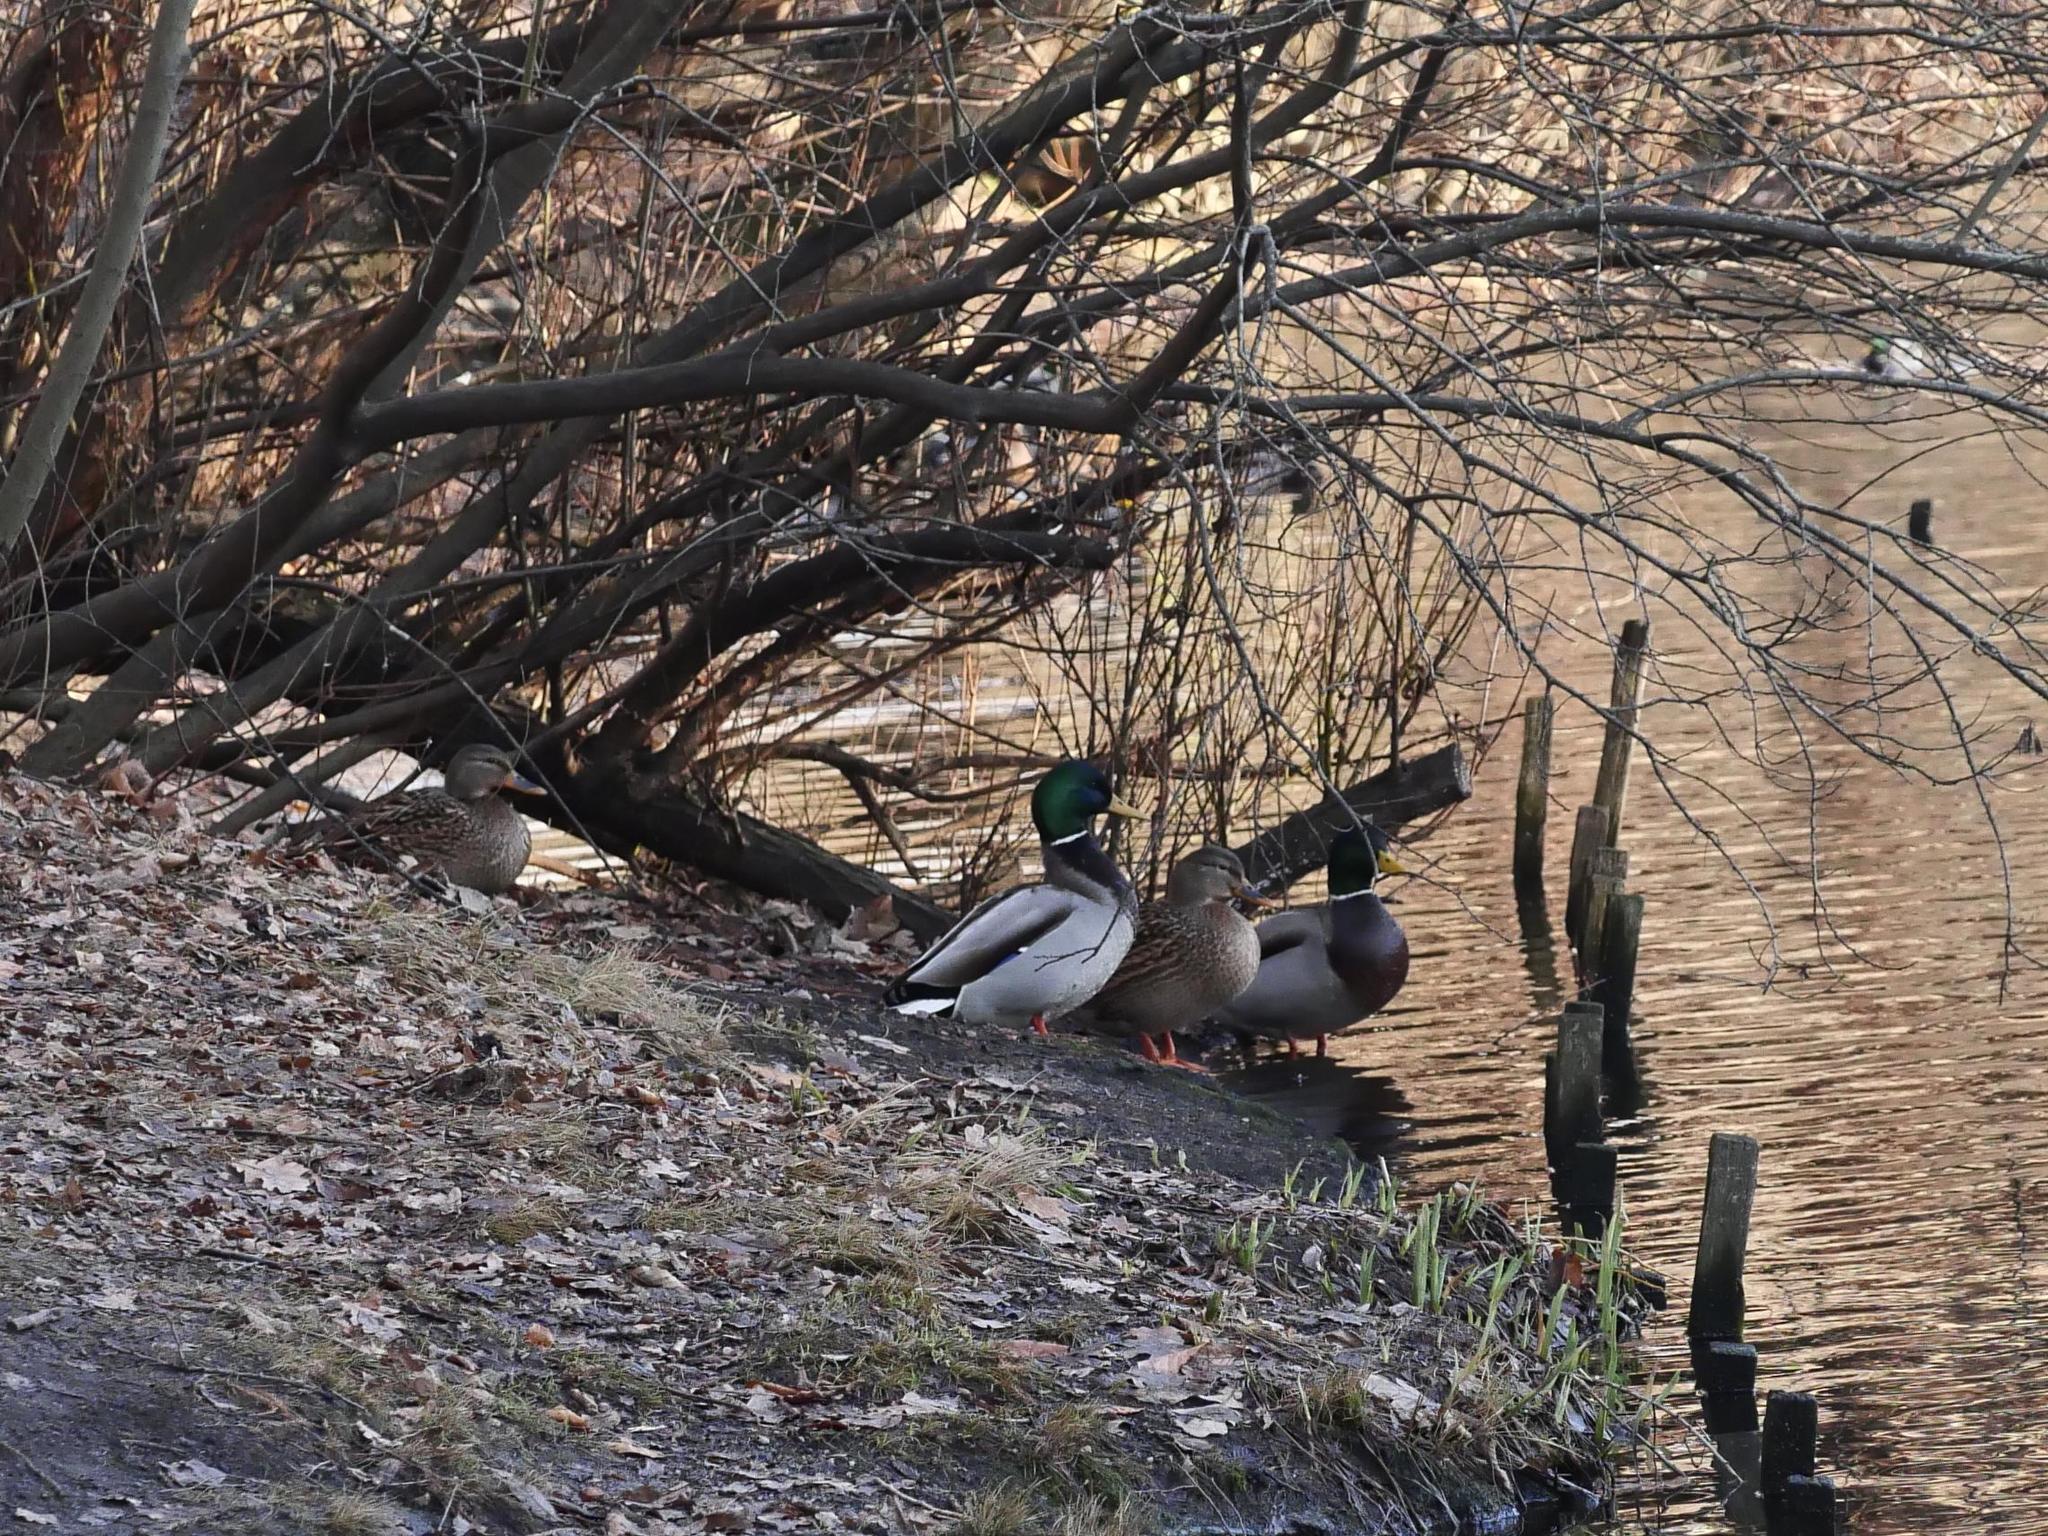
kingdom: Animalia
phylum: Chordata
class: Aves
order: Anseriformes
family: Anatidae
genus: Anas
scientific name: Anas platyrhynchos
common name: Mallard
